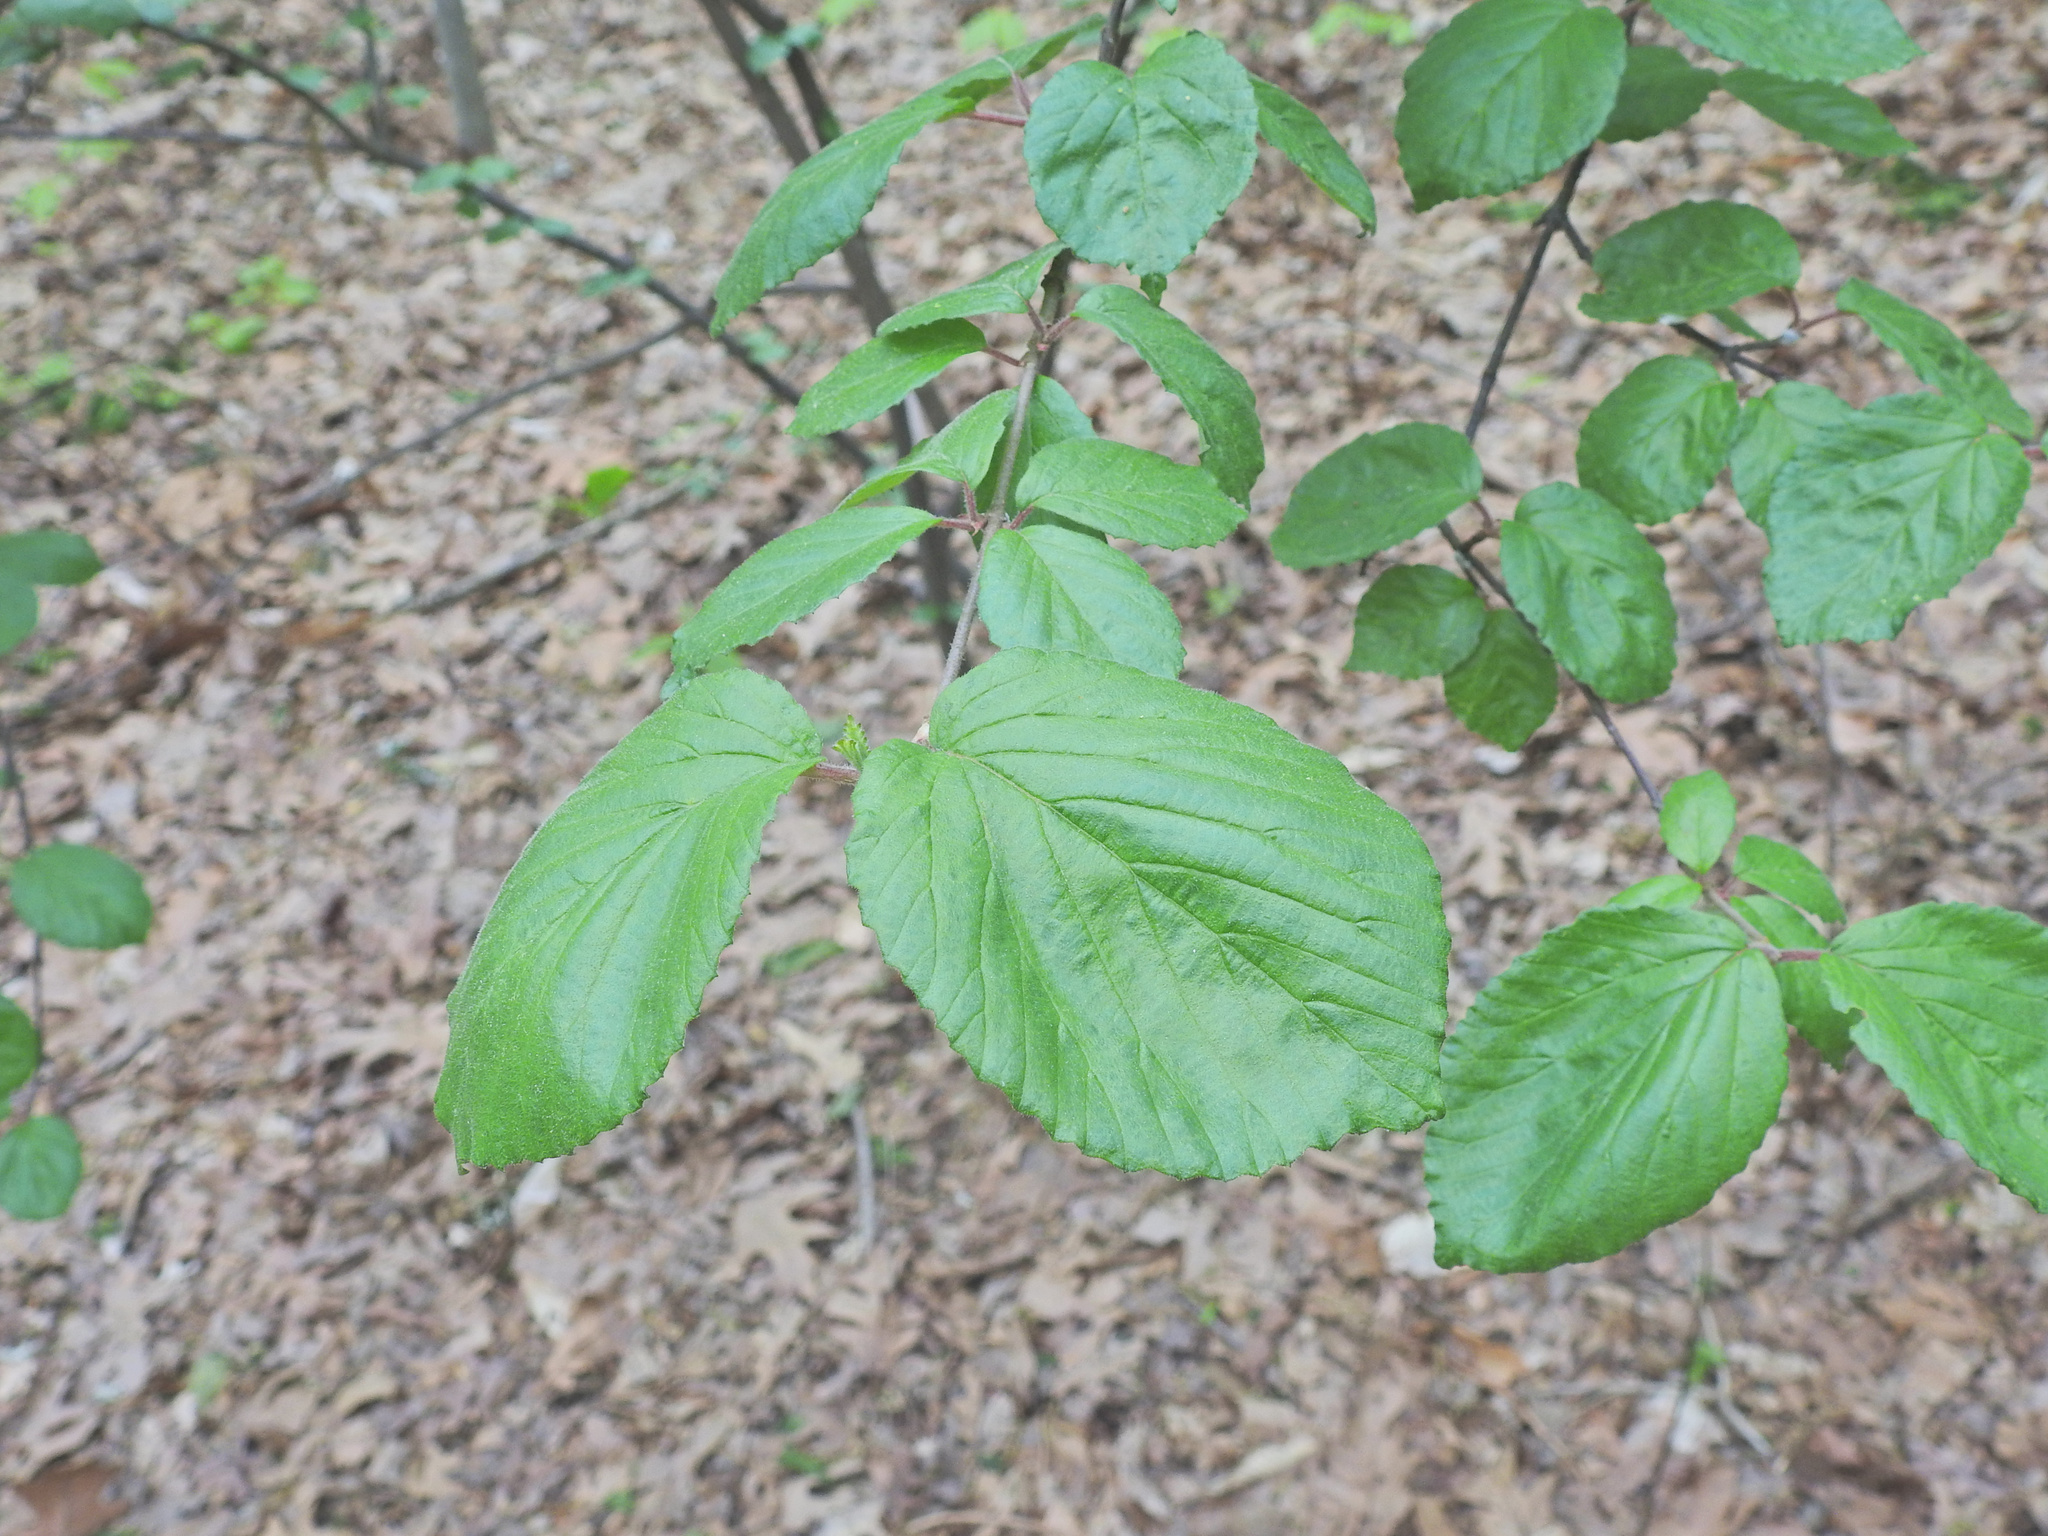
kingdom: Plantae
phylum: Tracheophyta
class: Magnoliopsida
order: Dipsacales
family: Viburnaceae
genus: Viburnum
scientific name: Viburnum dilatatum
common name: Linden arrowwood
